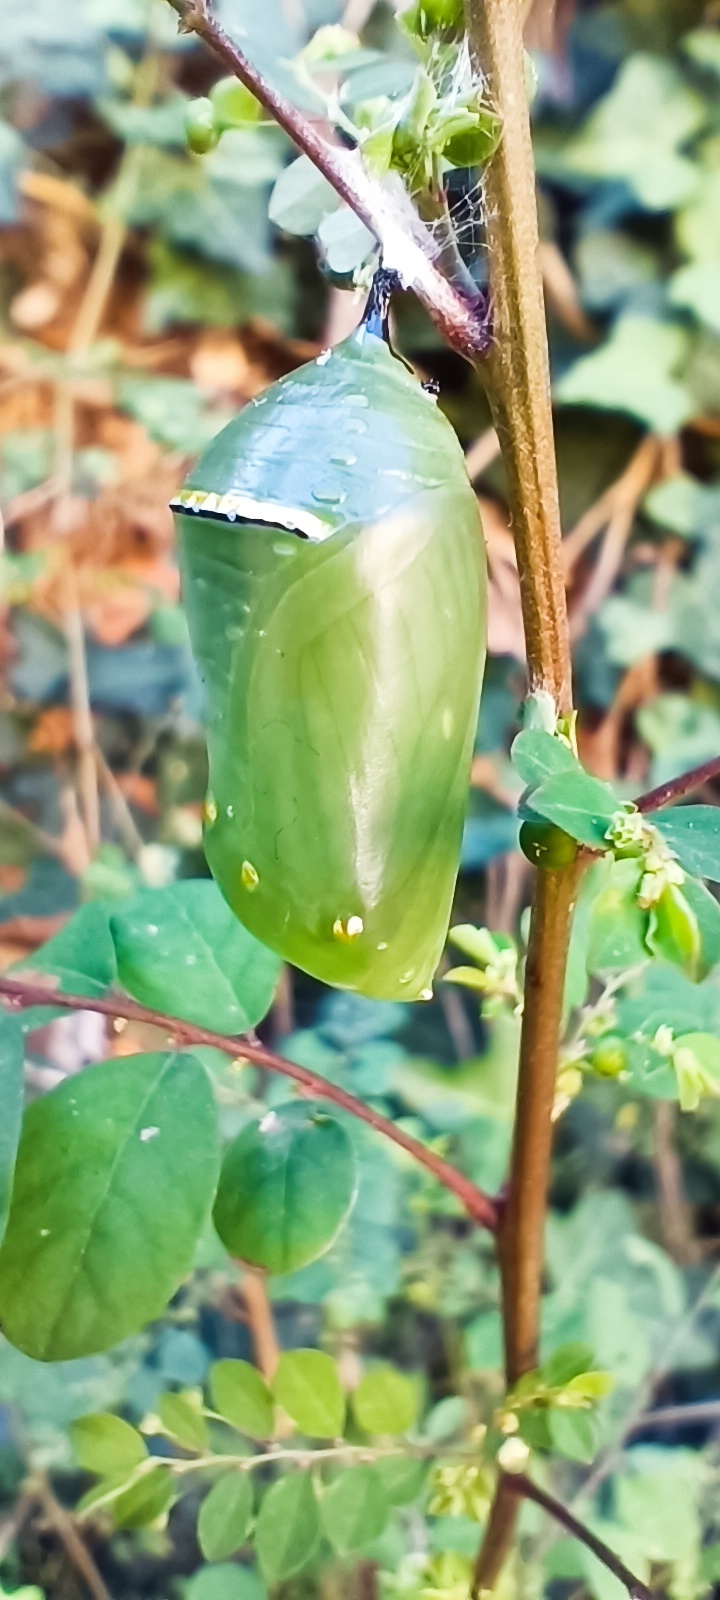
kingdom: Animalia
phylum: Arthropoda
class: Insecta
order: Lepidoptera
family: Nymphalidae
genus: Danaus
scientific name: Danaus plexippus
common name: Monarch
